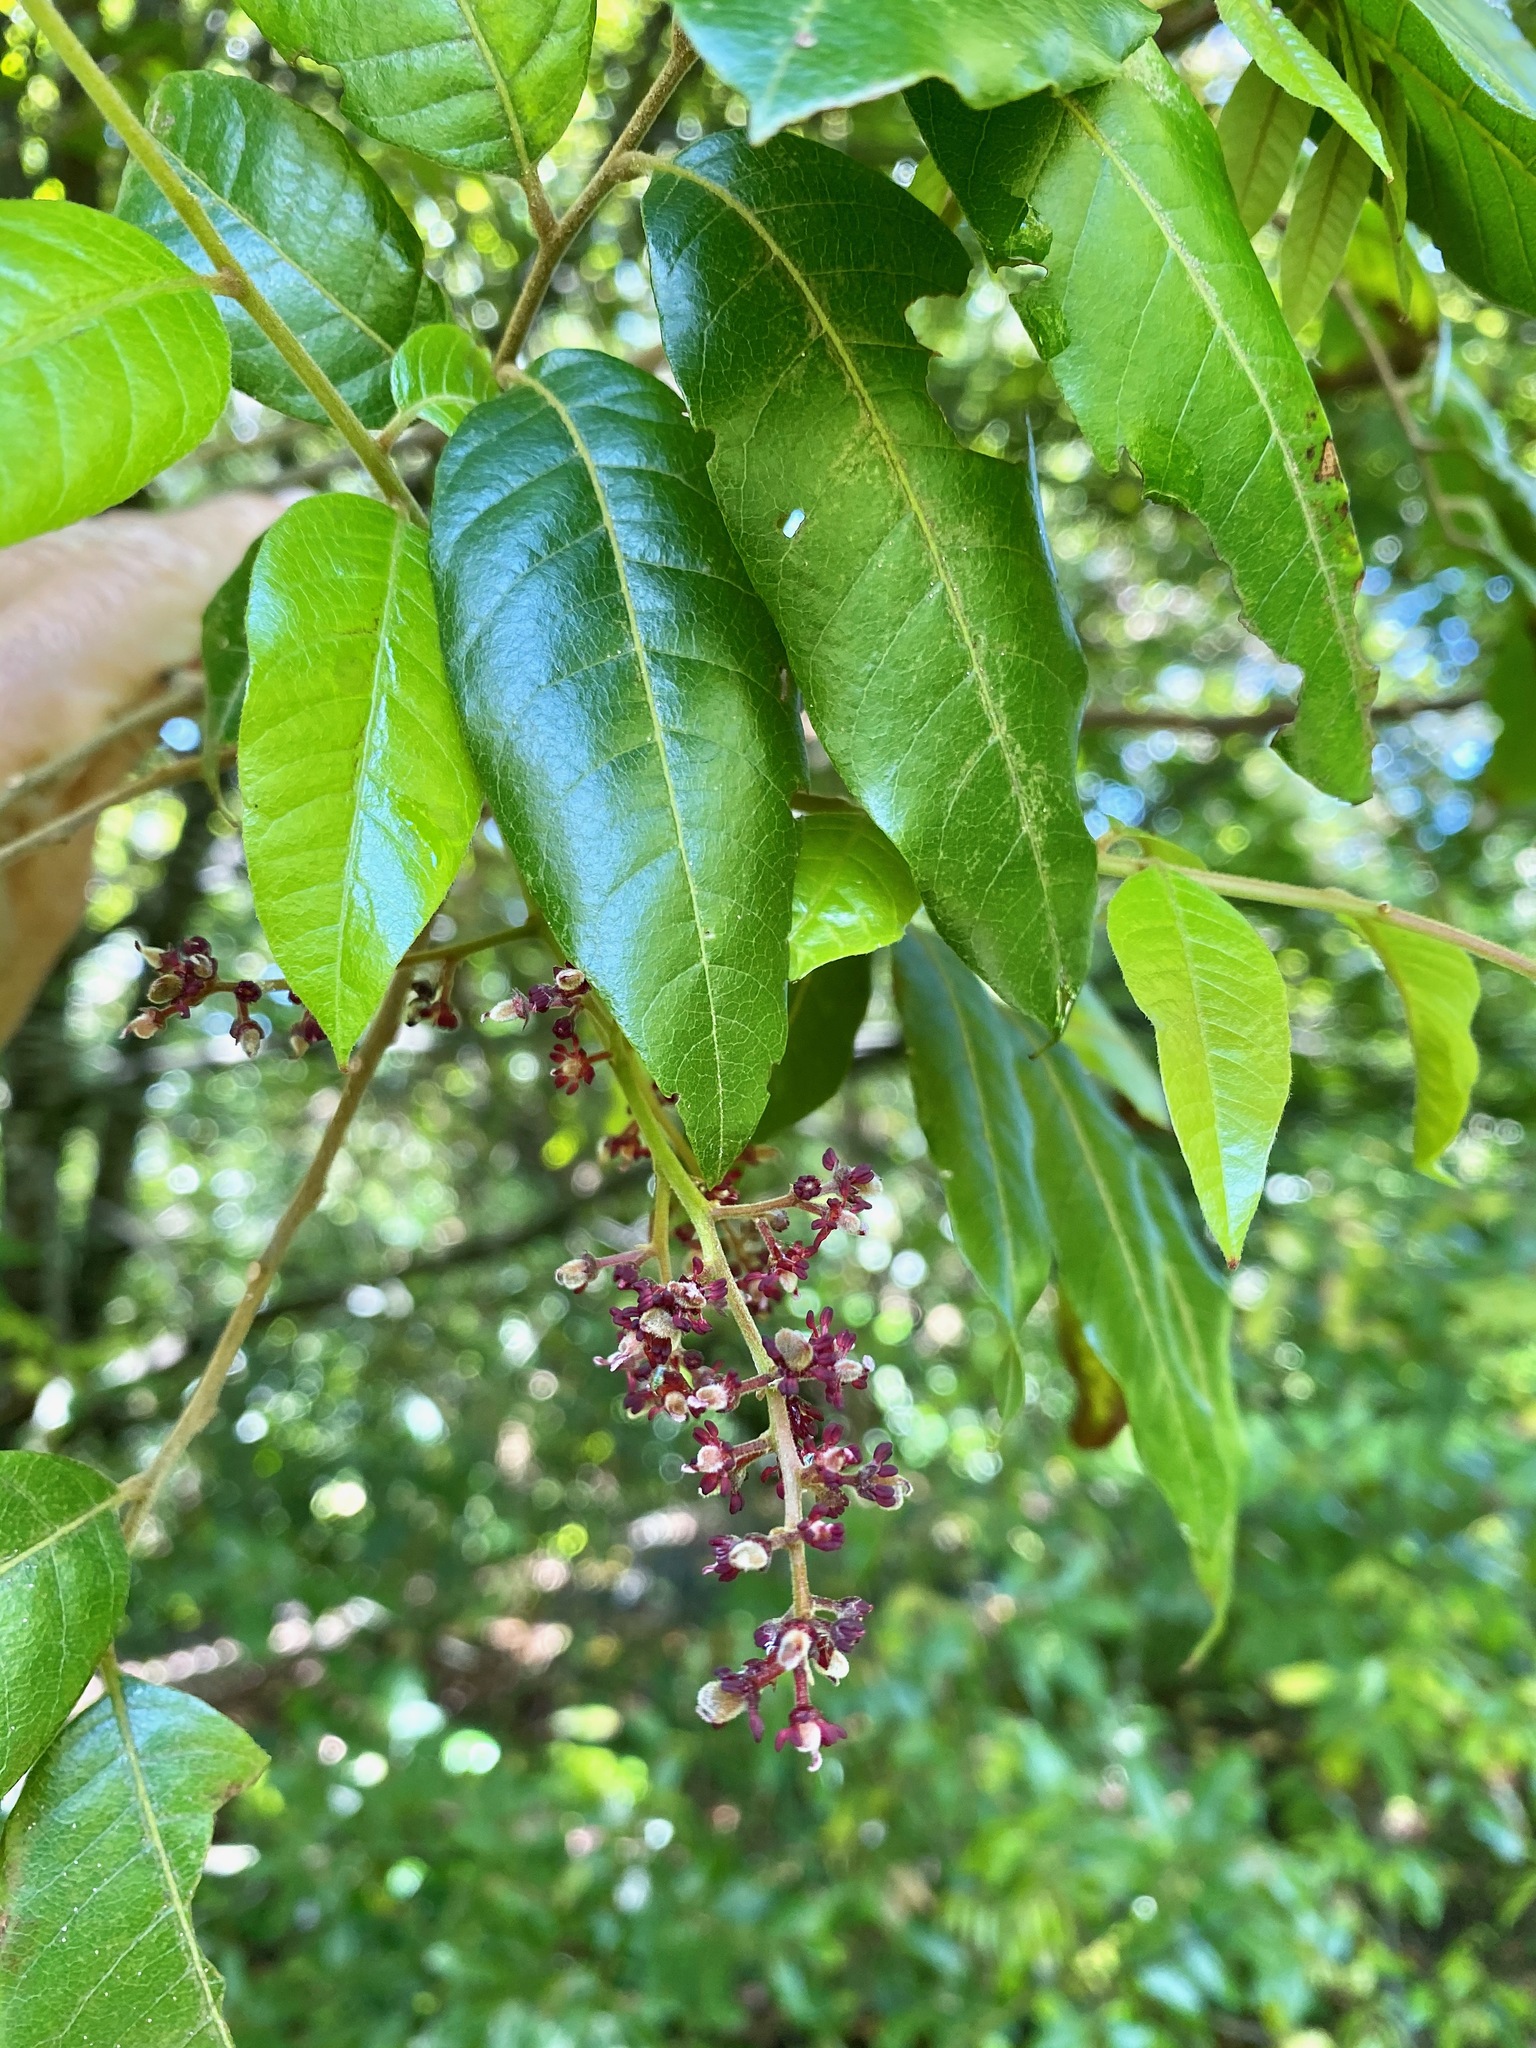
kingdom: Plantae
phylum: Tracheophyta
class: Magnoliopsida
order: Sapindales
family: Sapindaceae
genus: Alectryon
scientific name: Alectryon excelsus
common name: Three kings titoki
